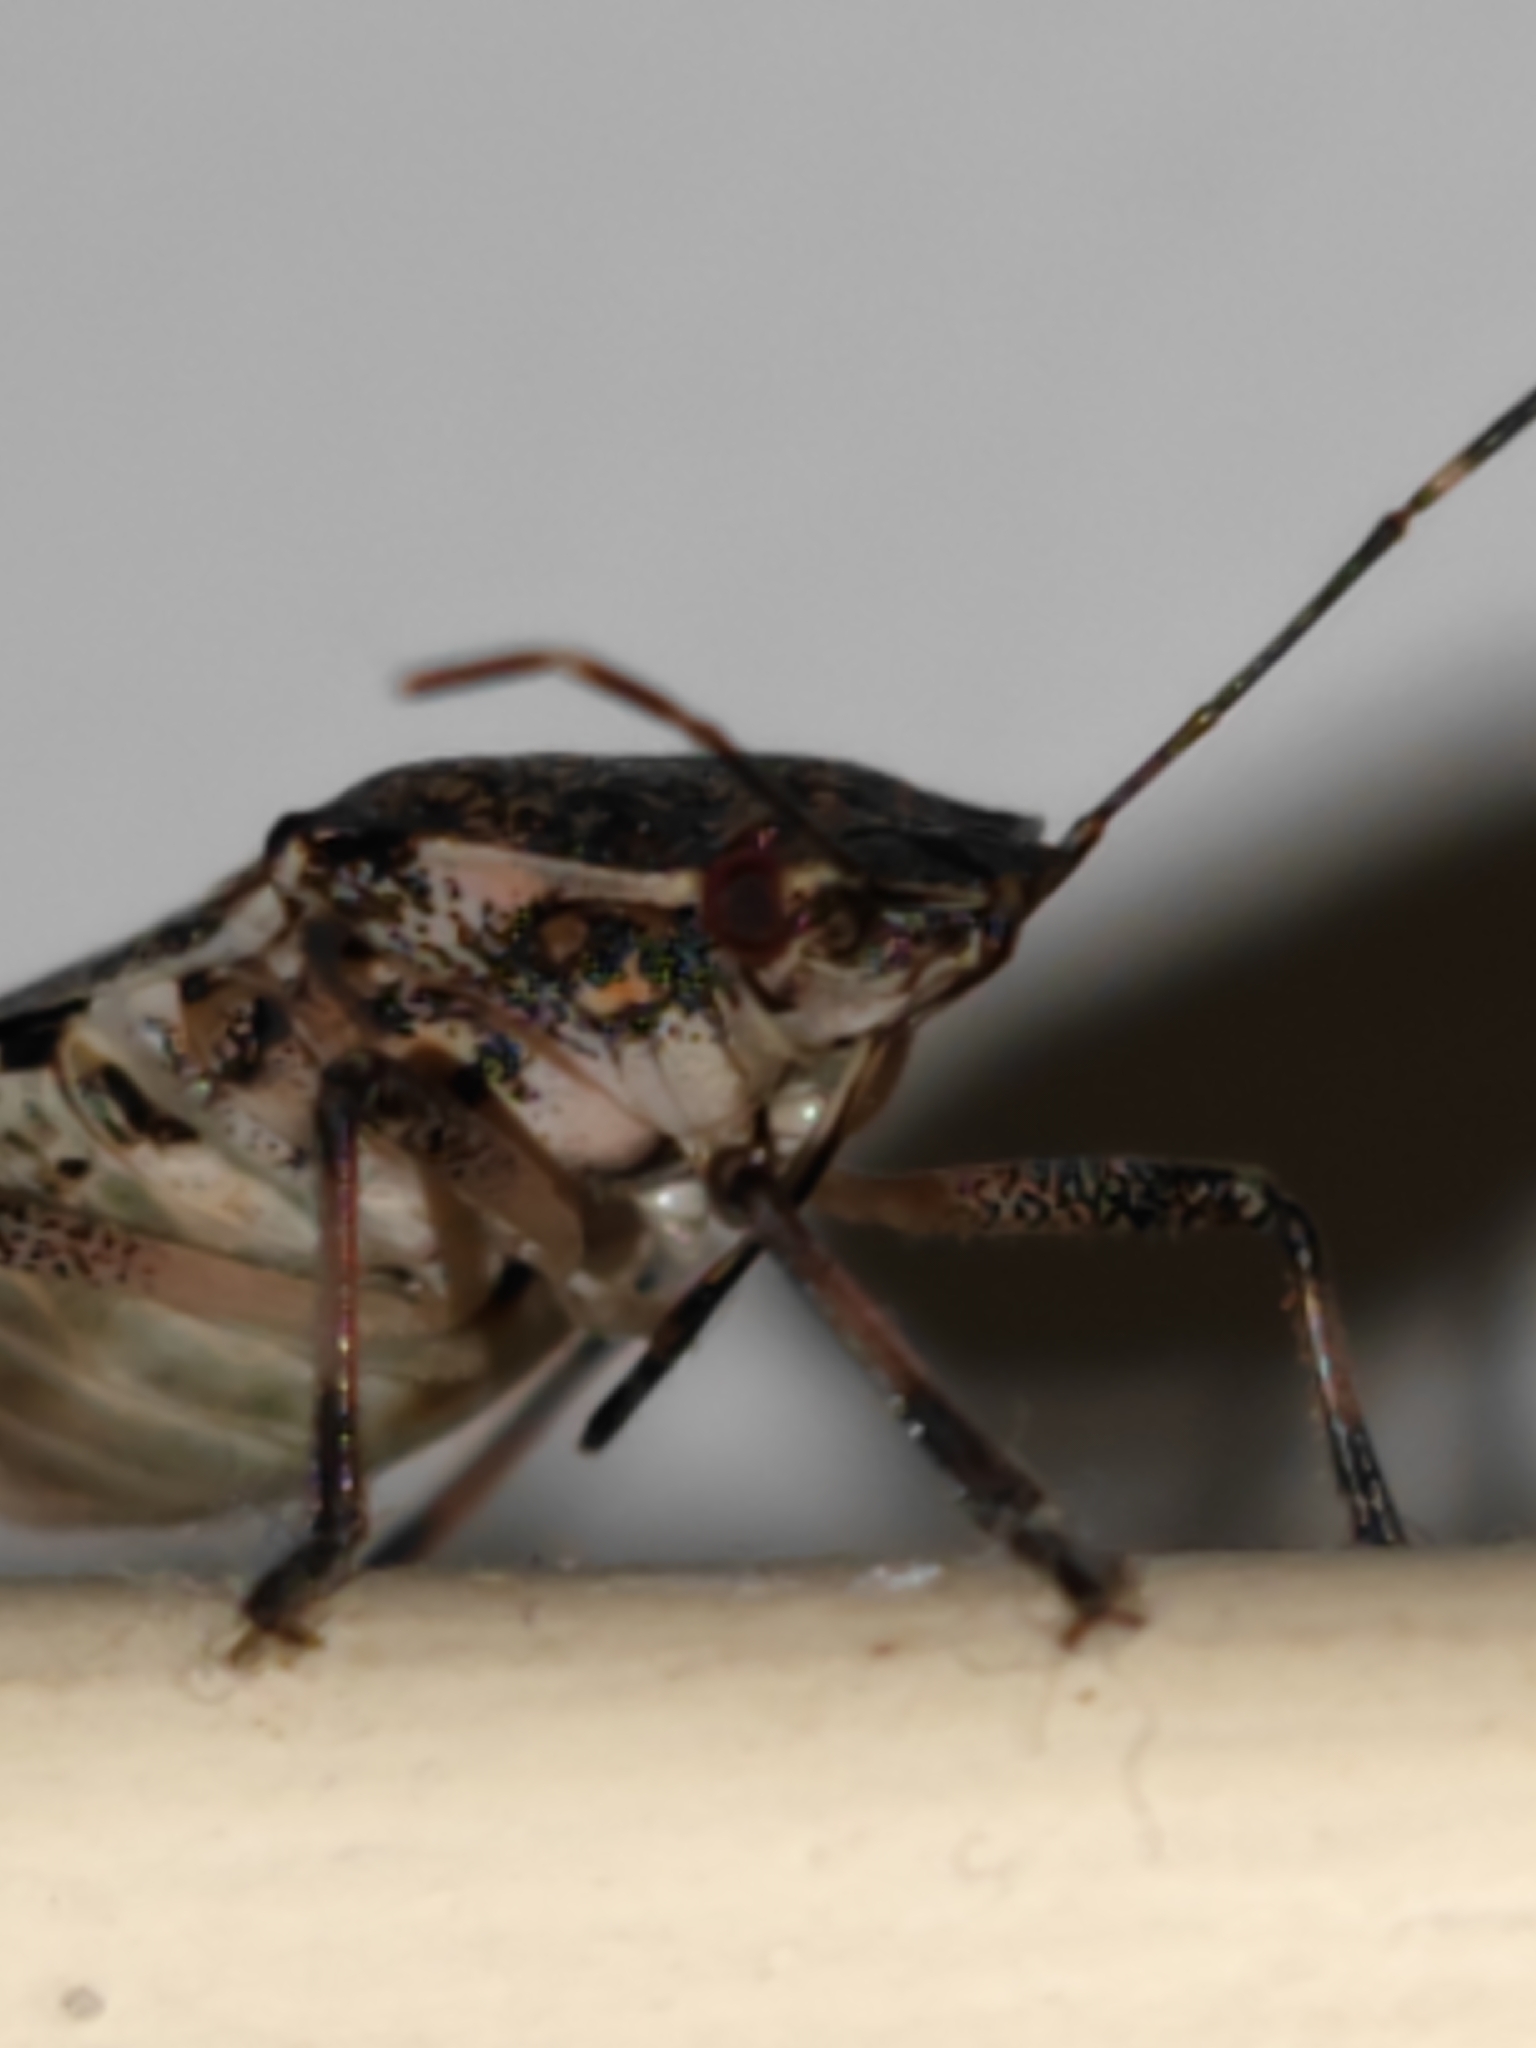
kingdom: Animalia
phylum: Arthropoda
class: Insecta
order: Hemiptera
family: Pentatomidae
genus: Halyomorpha
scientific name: Halyomorpha halys
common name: Brown marmorated stink bug
